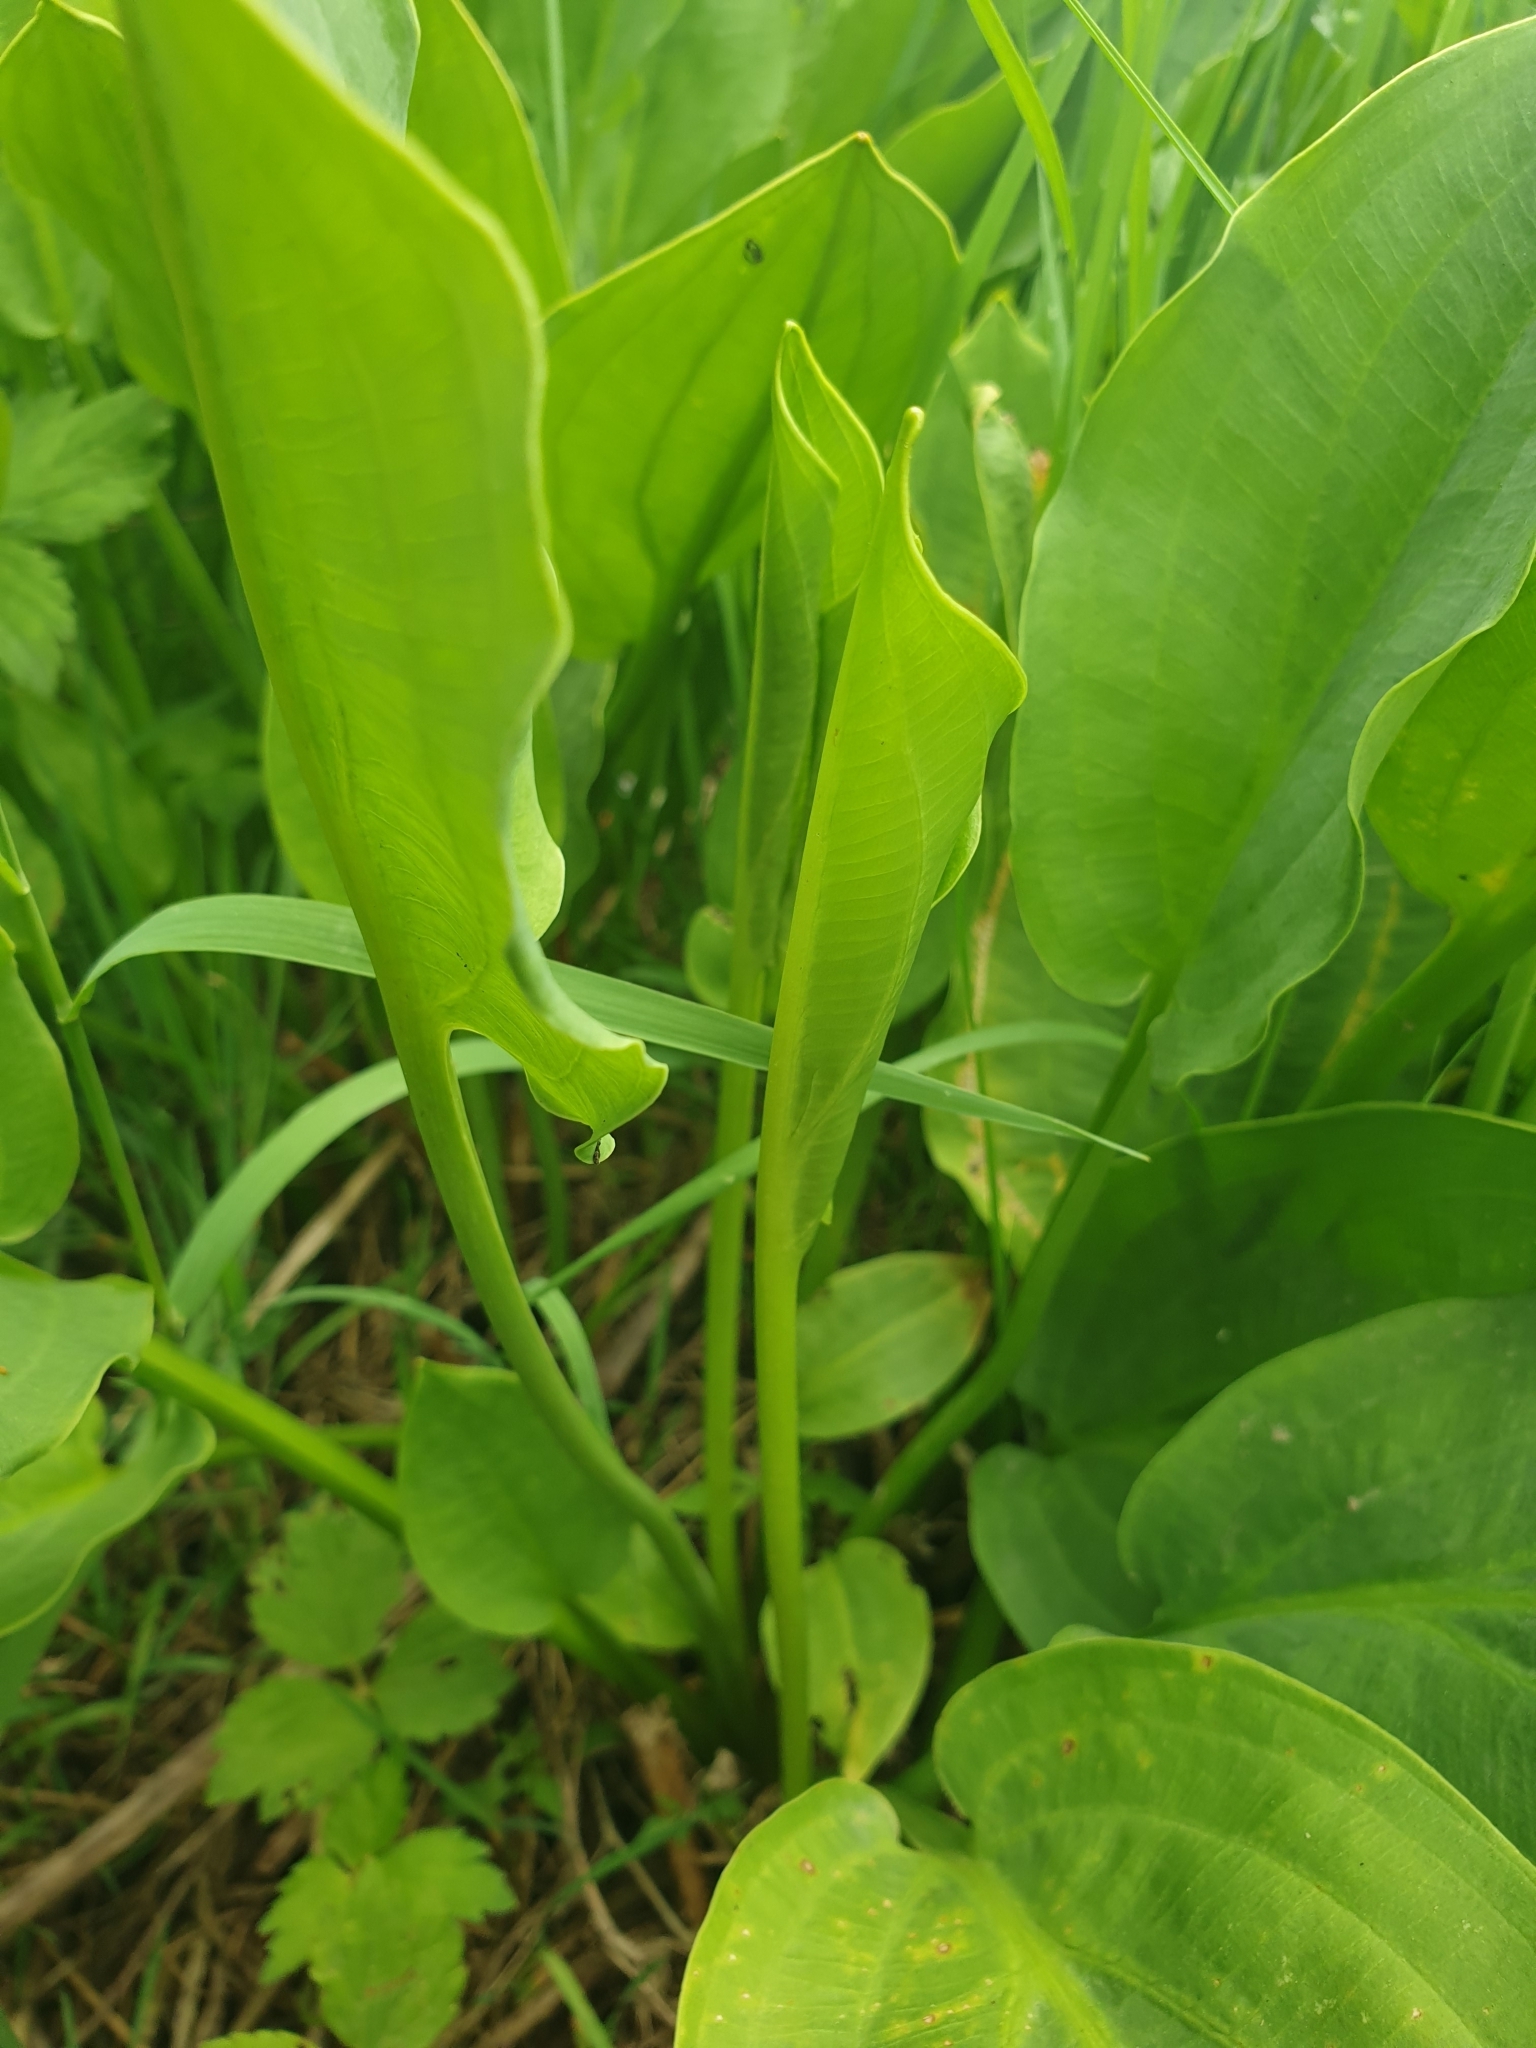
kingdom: Plantae
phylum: Tracheophyta
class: Liliopsida
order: Alismatales
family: Alismataceae
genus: Alisma
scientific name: Alisma plantago-aquatica
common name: Water-plantain
